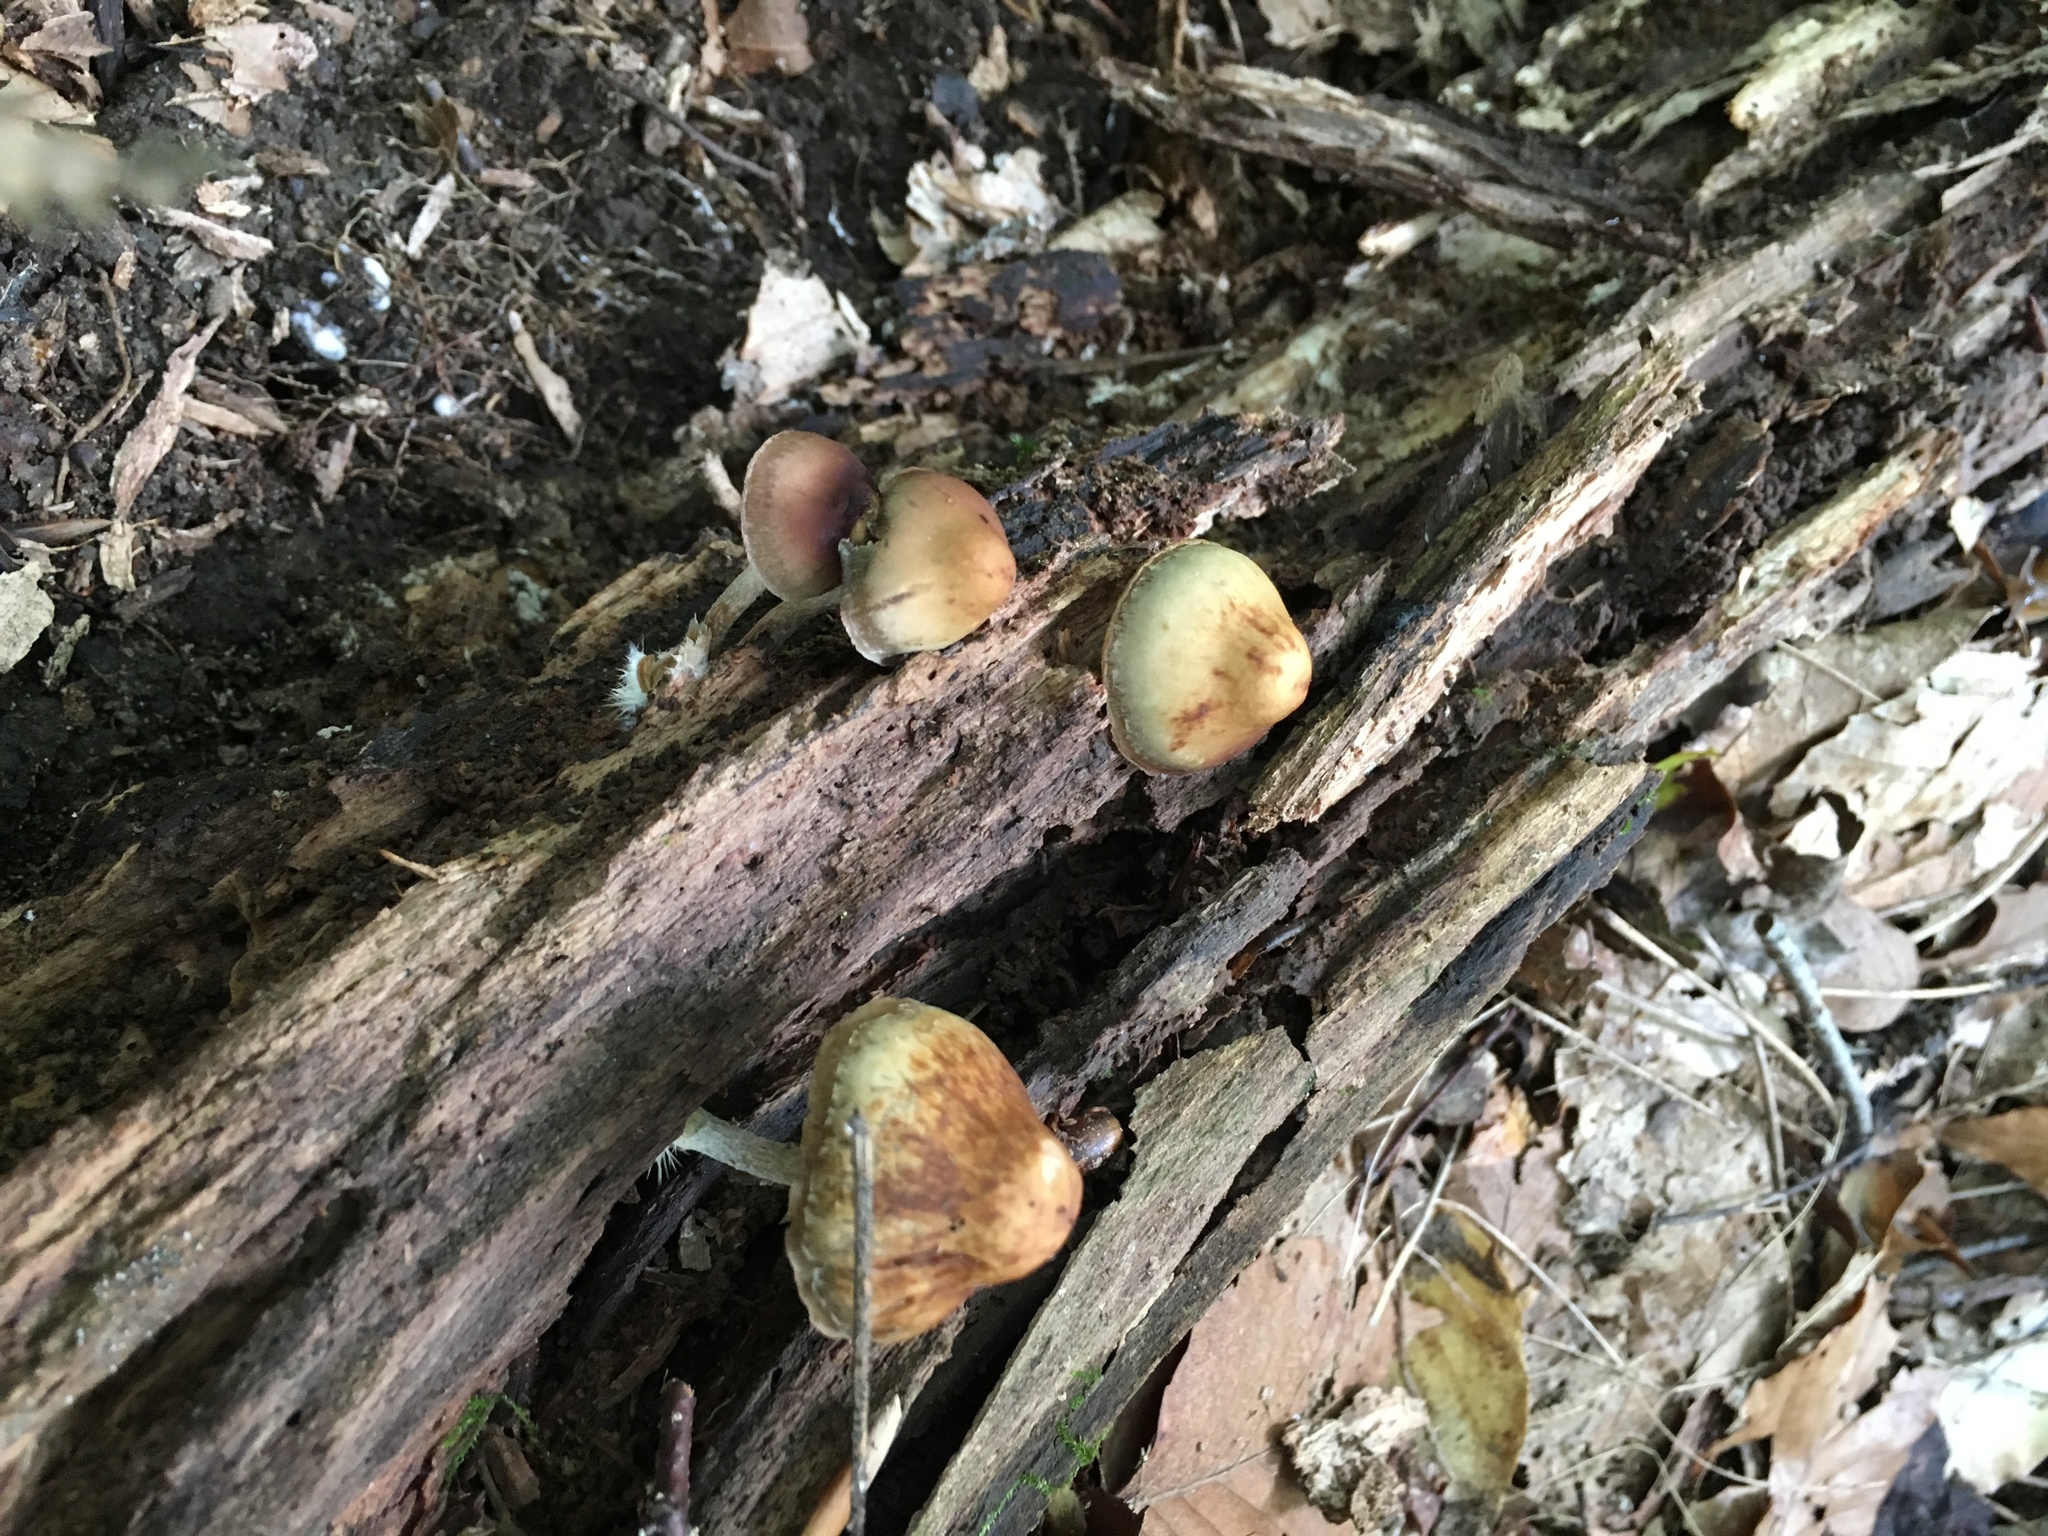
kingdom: Fungi
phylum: Basidiomycota
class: Agaricomycetes
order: Agaricales
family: Hymenogastraceae
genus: Psilocybe
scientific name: Psilocybe caerulipes
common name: Blue-foot
